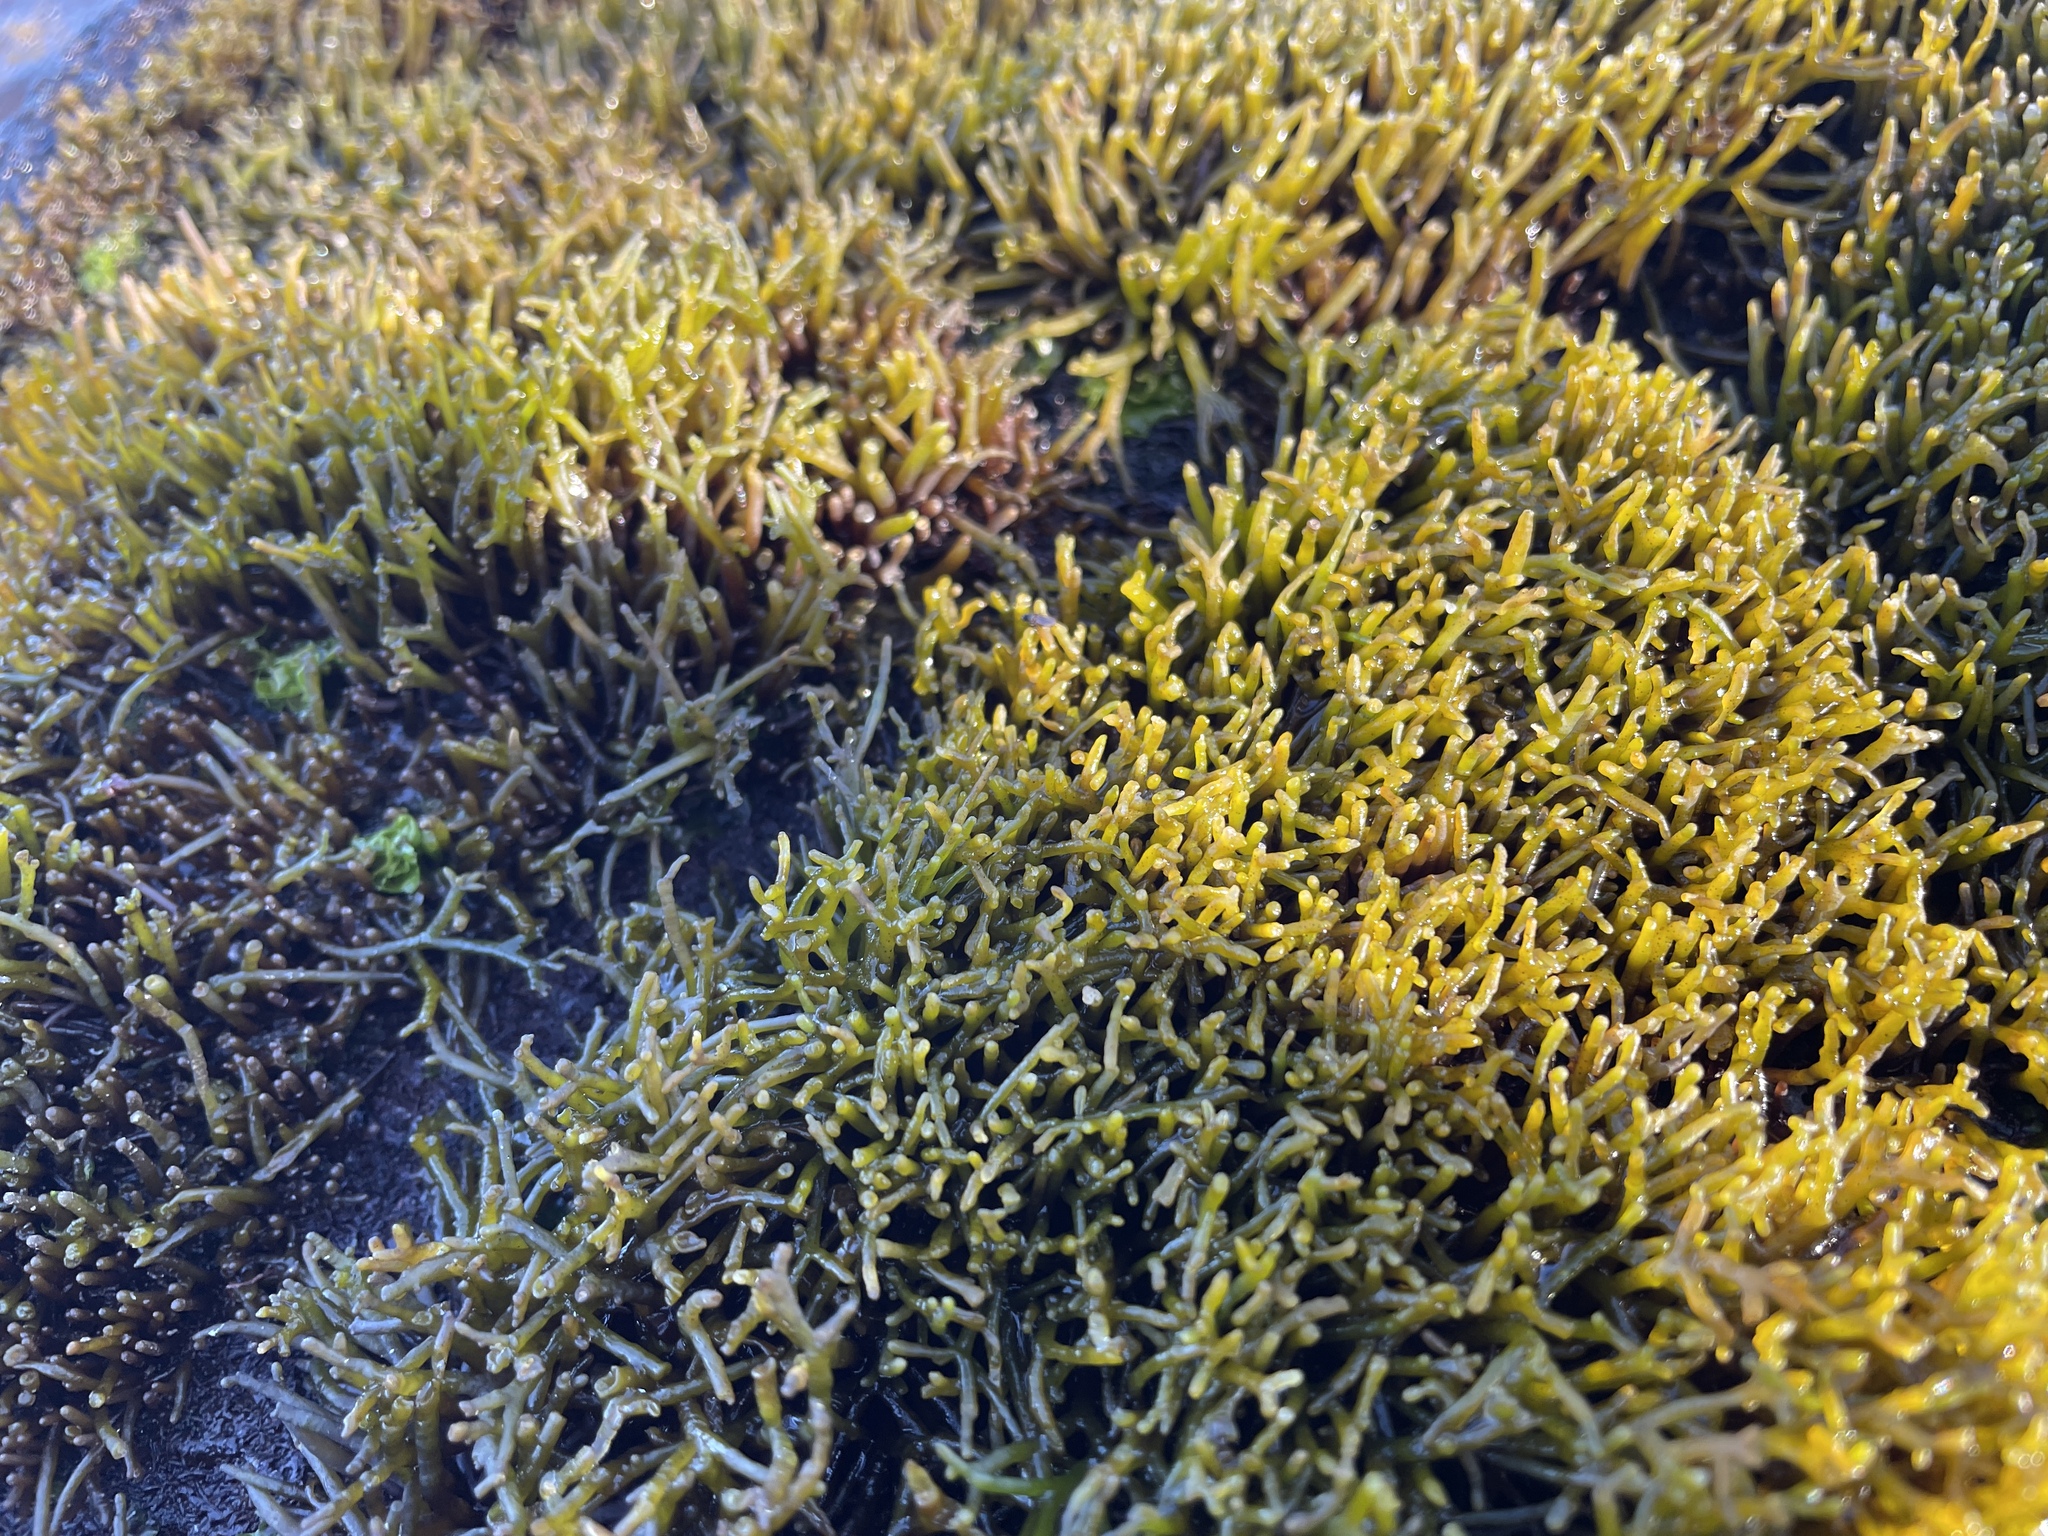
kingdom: Plantae
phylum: Rhodophyta
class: Florideophyceae
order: Gigartinales
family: Phyllophoraceae
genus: Gymnogongrus
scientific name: Gymnogongrus durvillei
